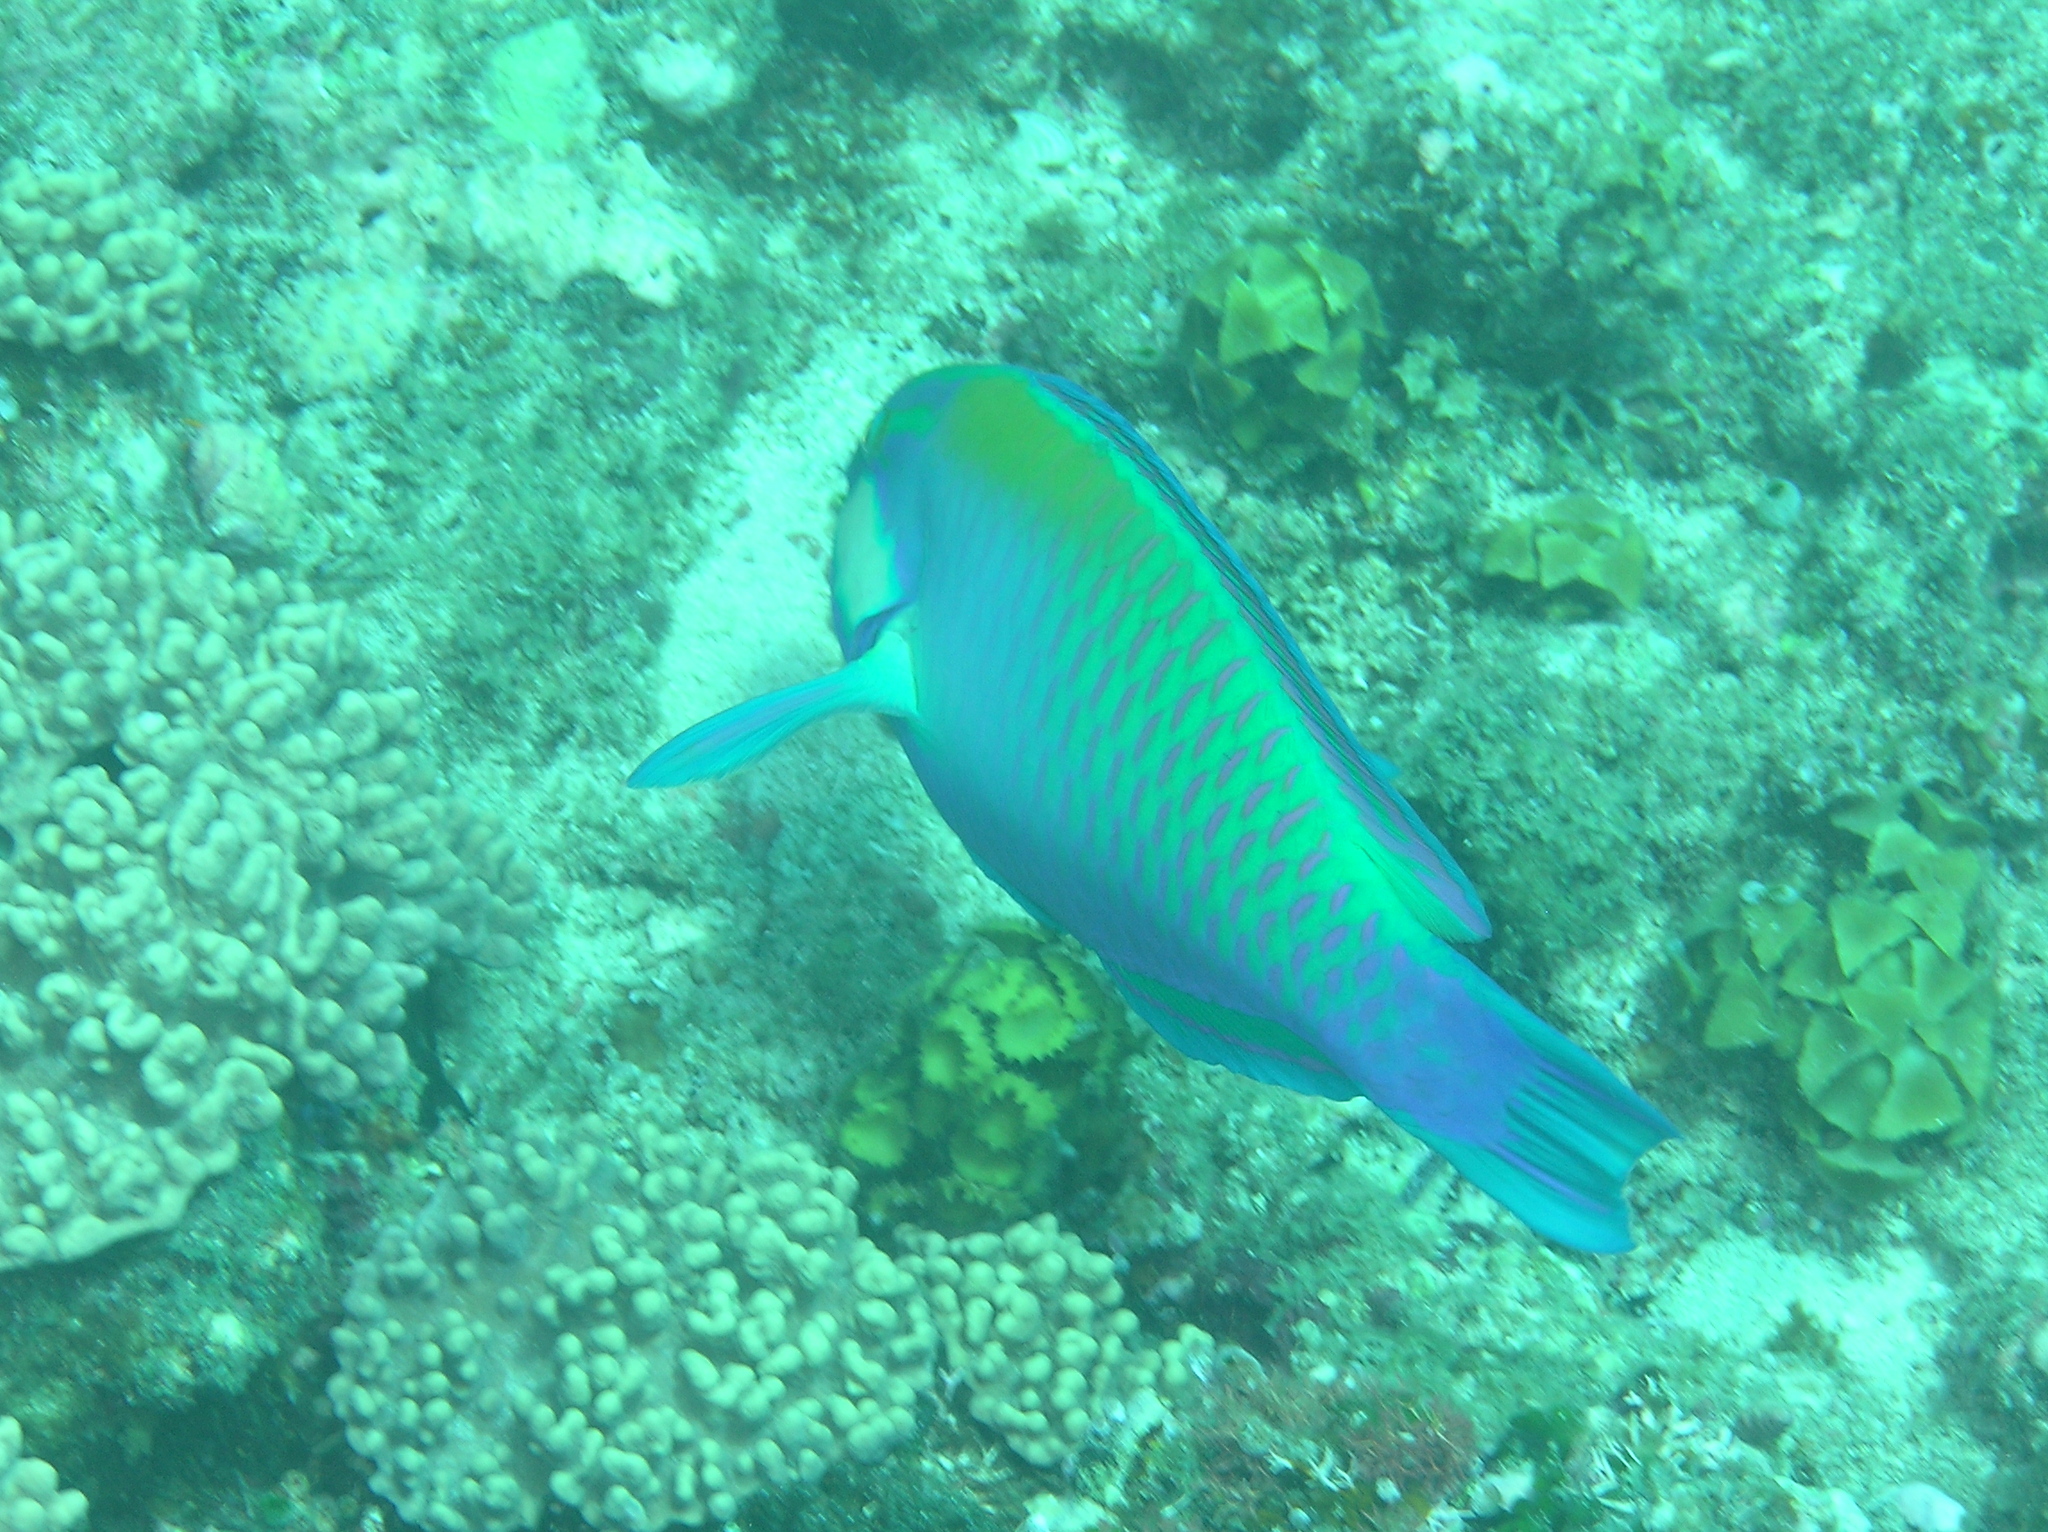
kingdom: Animalia
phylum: Chordata
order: Perciformes
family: Scaridae
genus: Chlorurus
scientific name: Chlorurus bleekeri
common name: Bleeker's parrotfish
